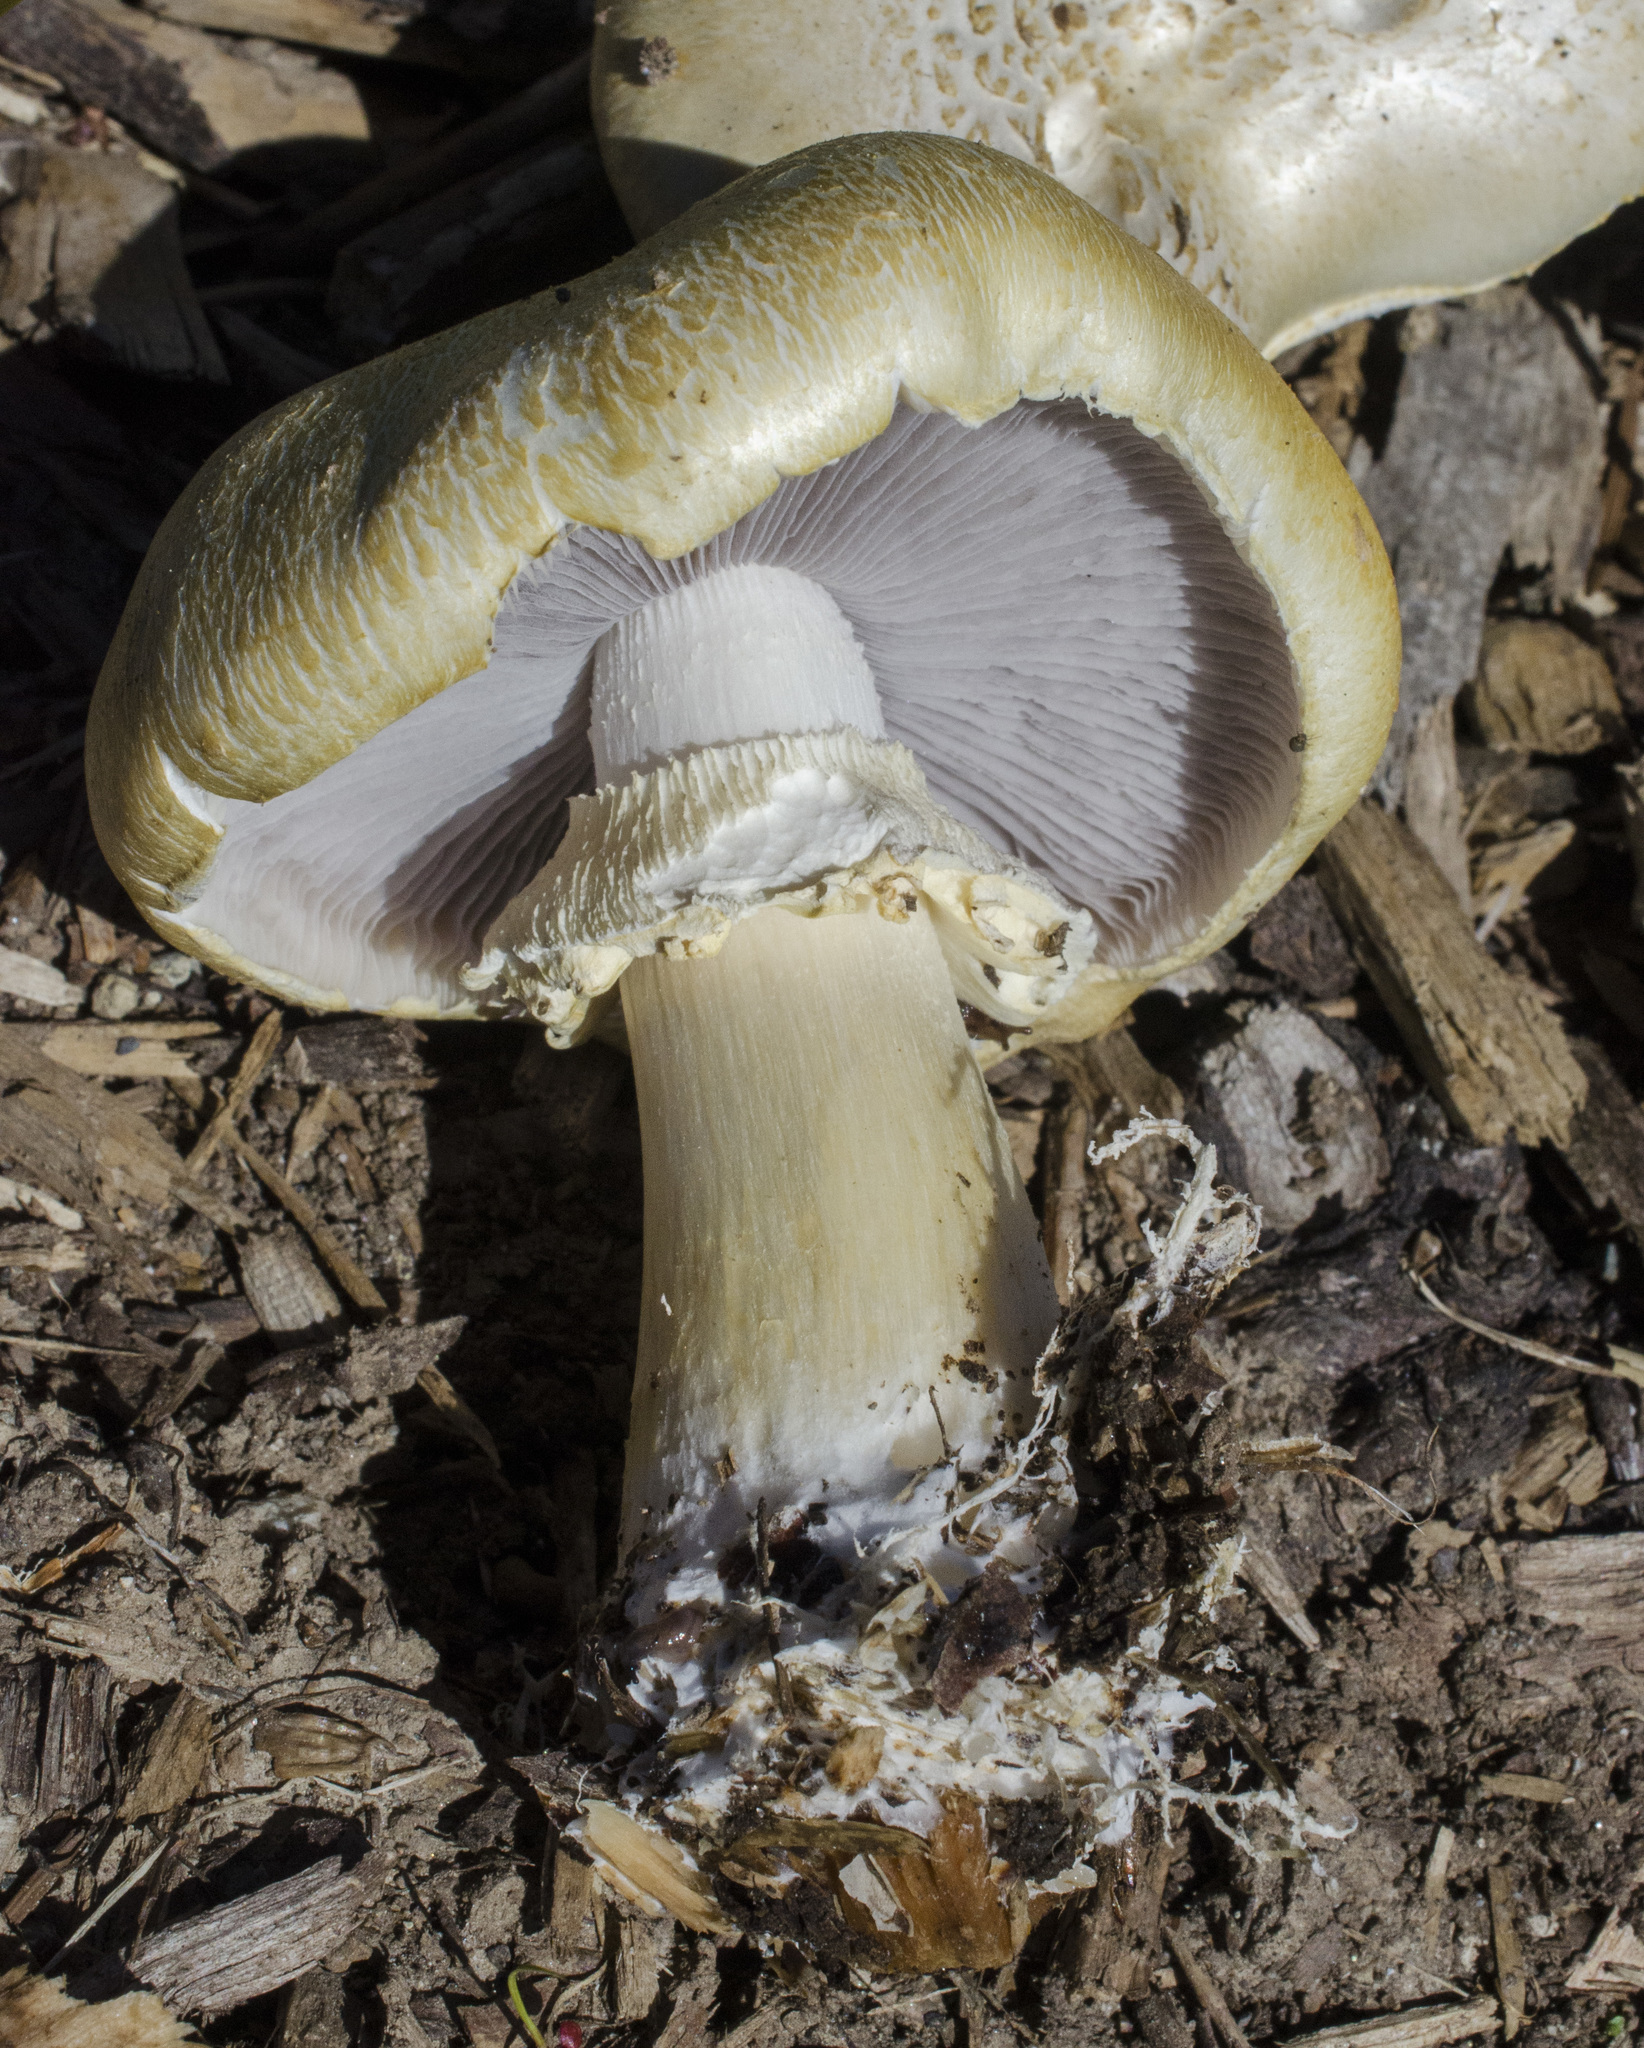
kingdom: Fungi
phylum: Basidiomycota
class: Agaricomycetes
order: Agaricales
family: Strophariaceae
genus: Stropharia
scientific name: Stropharia rugosoannulata
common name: Wine roundhead
